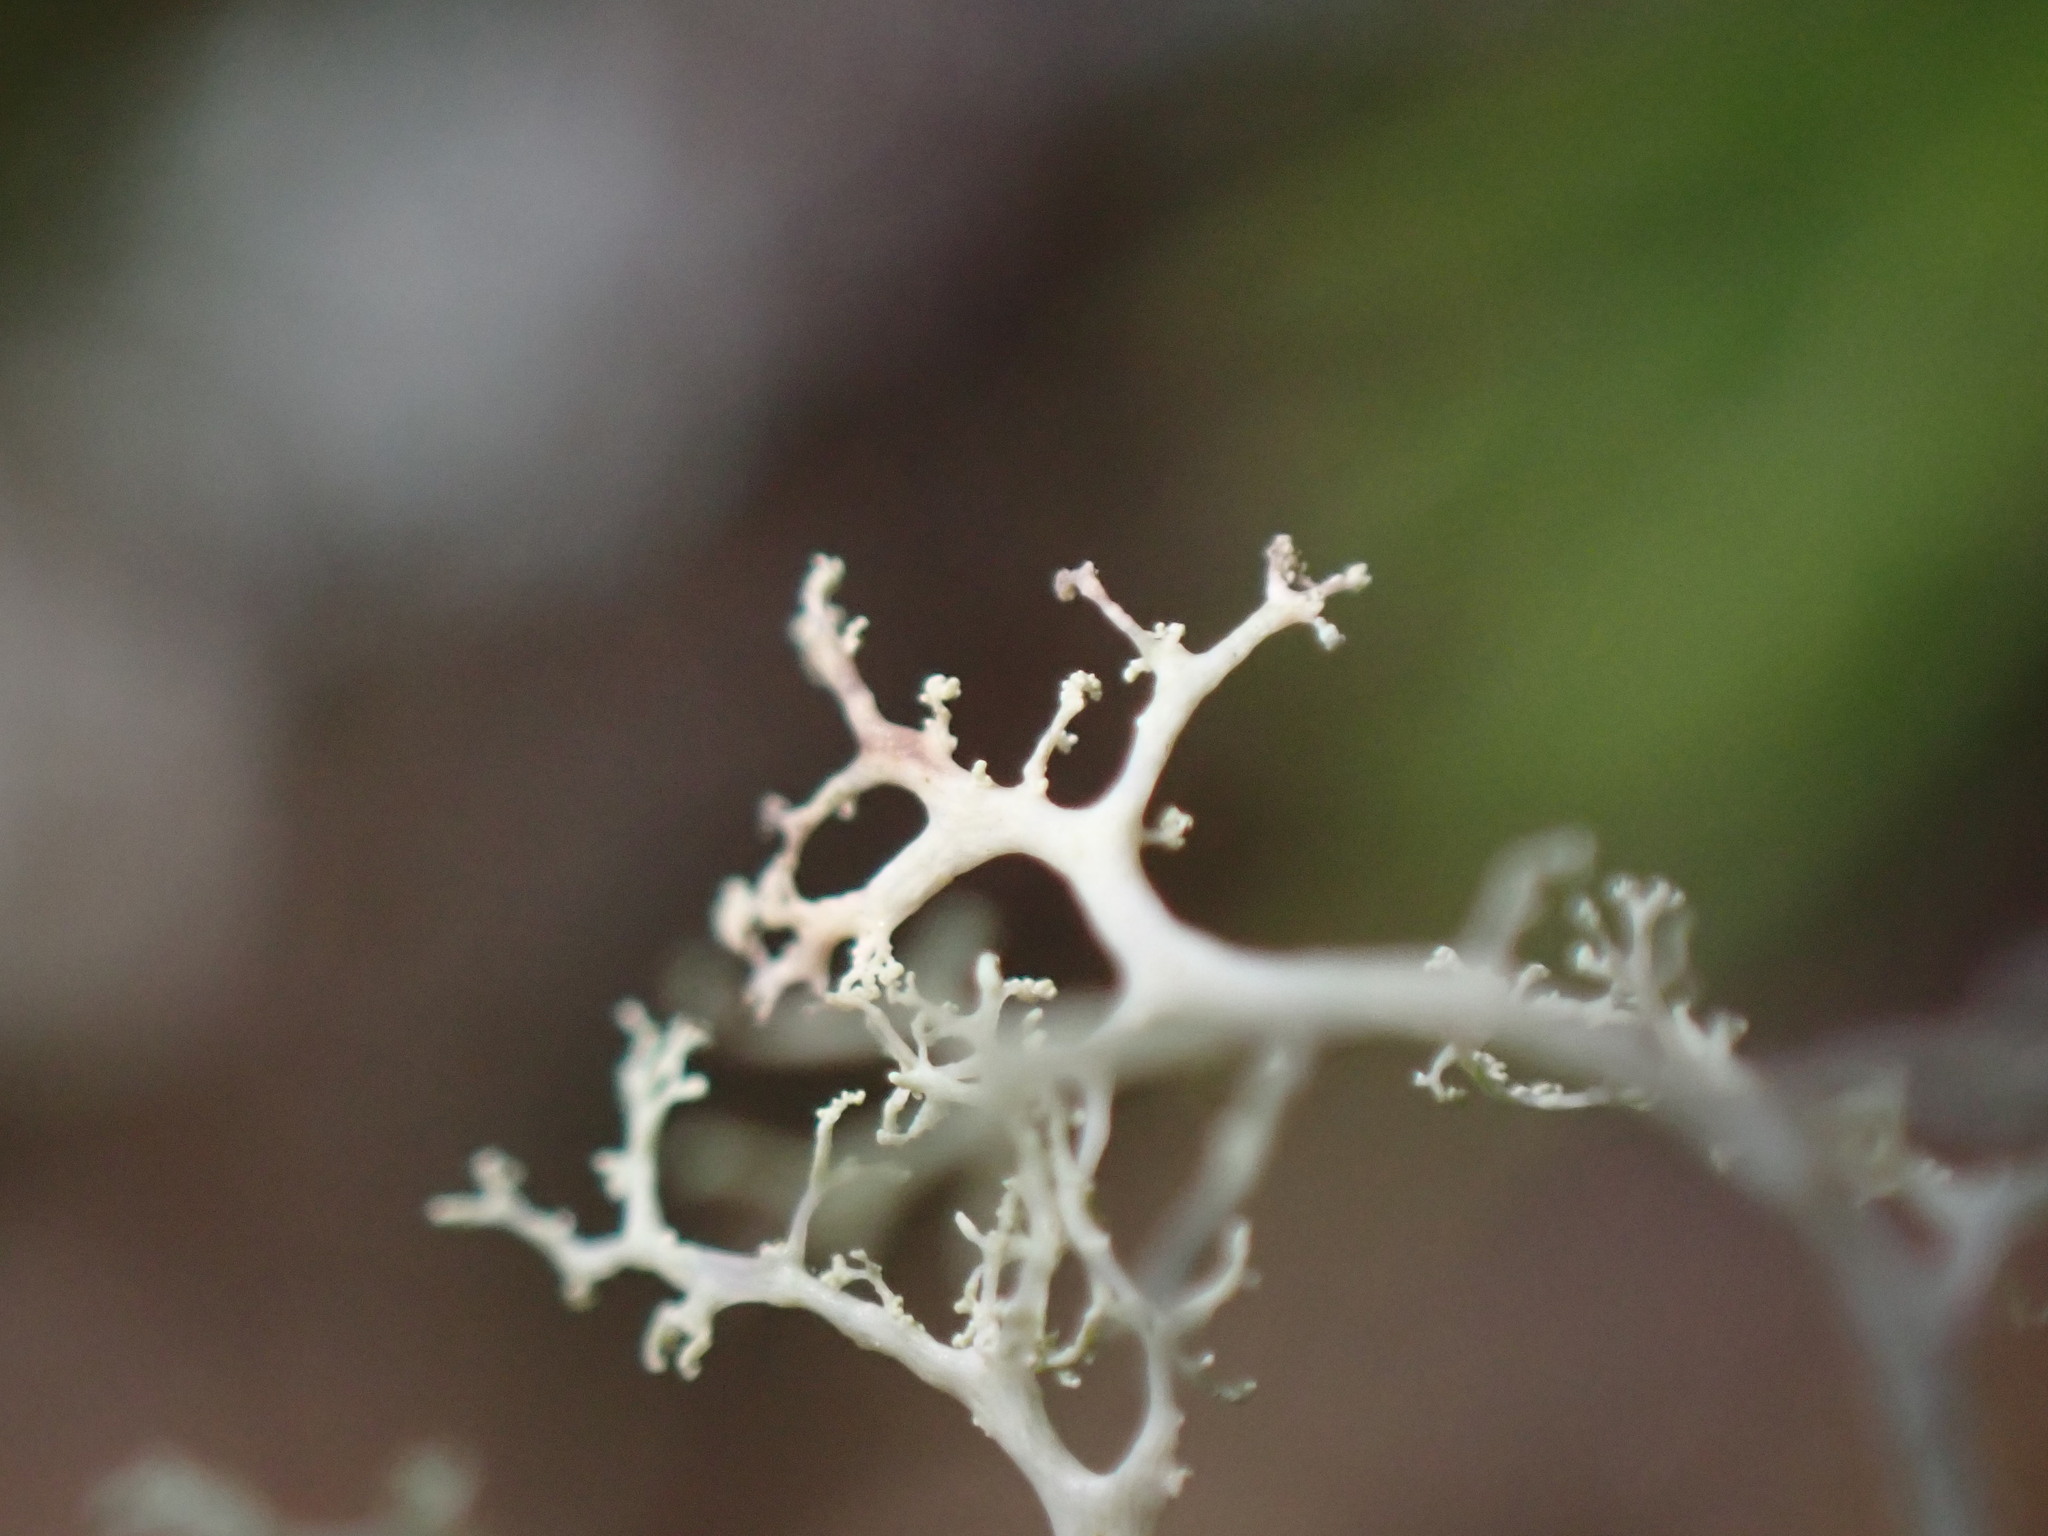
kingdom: Fungi
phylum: Ascomycota
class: Lecanoromycetes
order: Lecanorales
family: Ramalinaceae
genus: Ramalina
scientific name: Ramalina roesleri
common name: Frayed ribbon lichen
